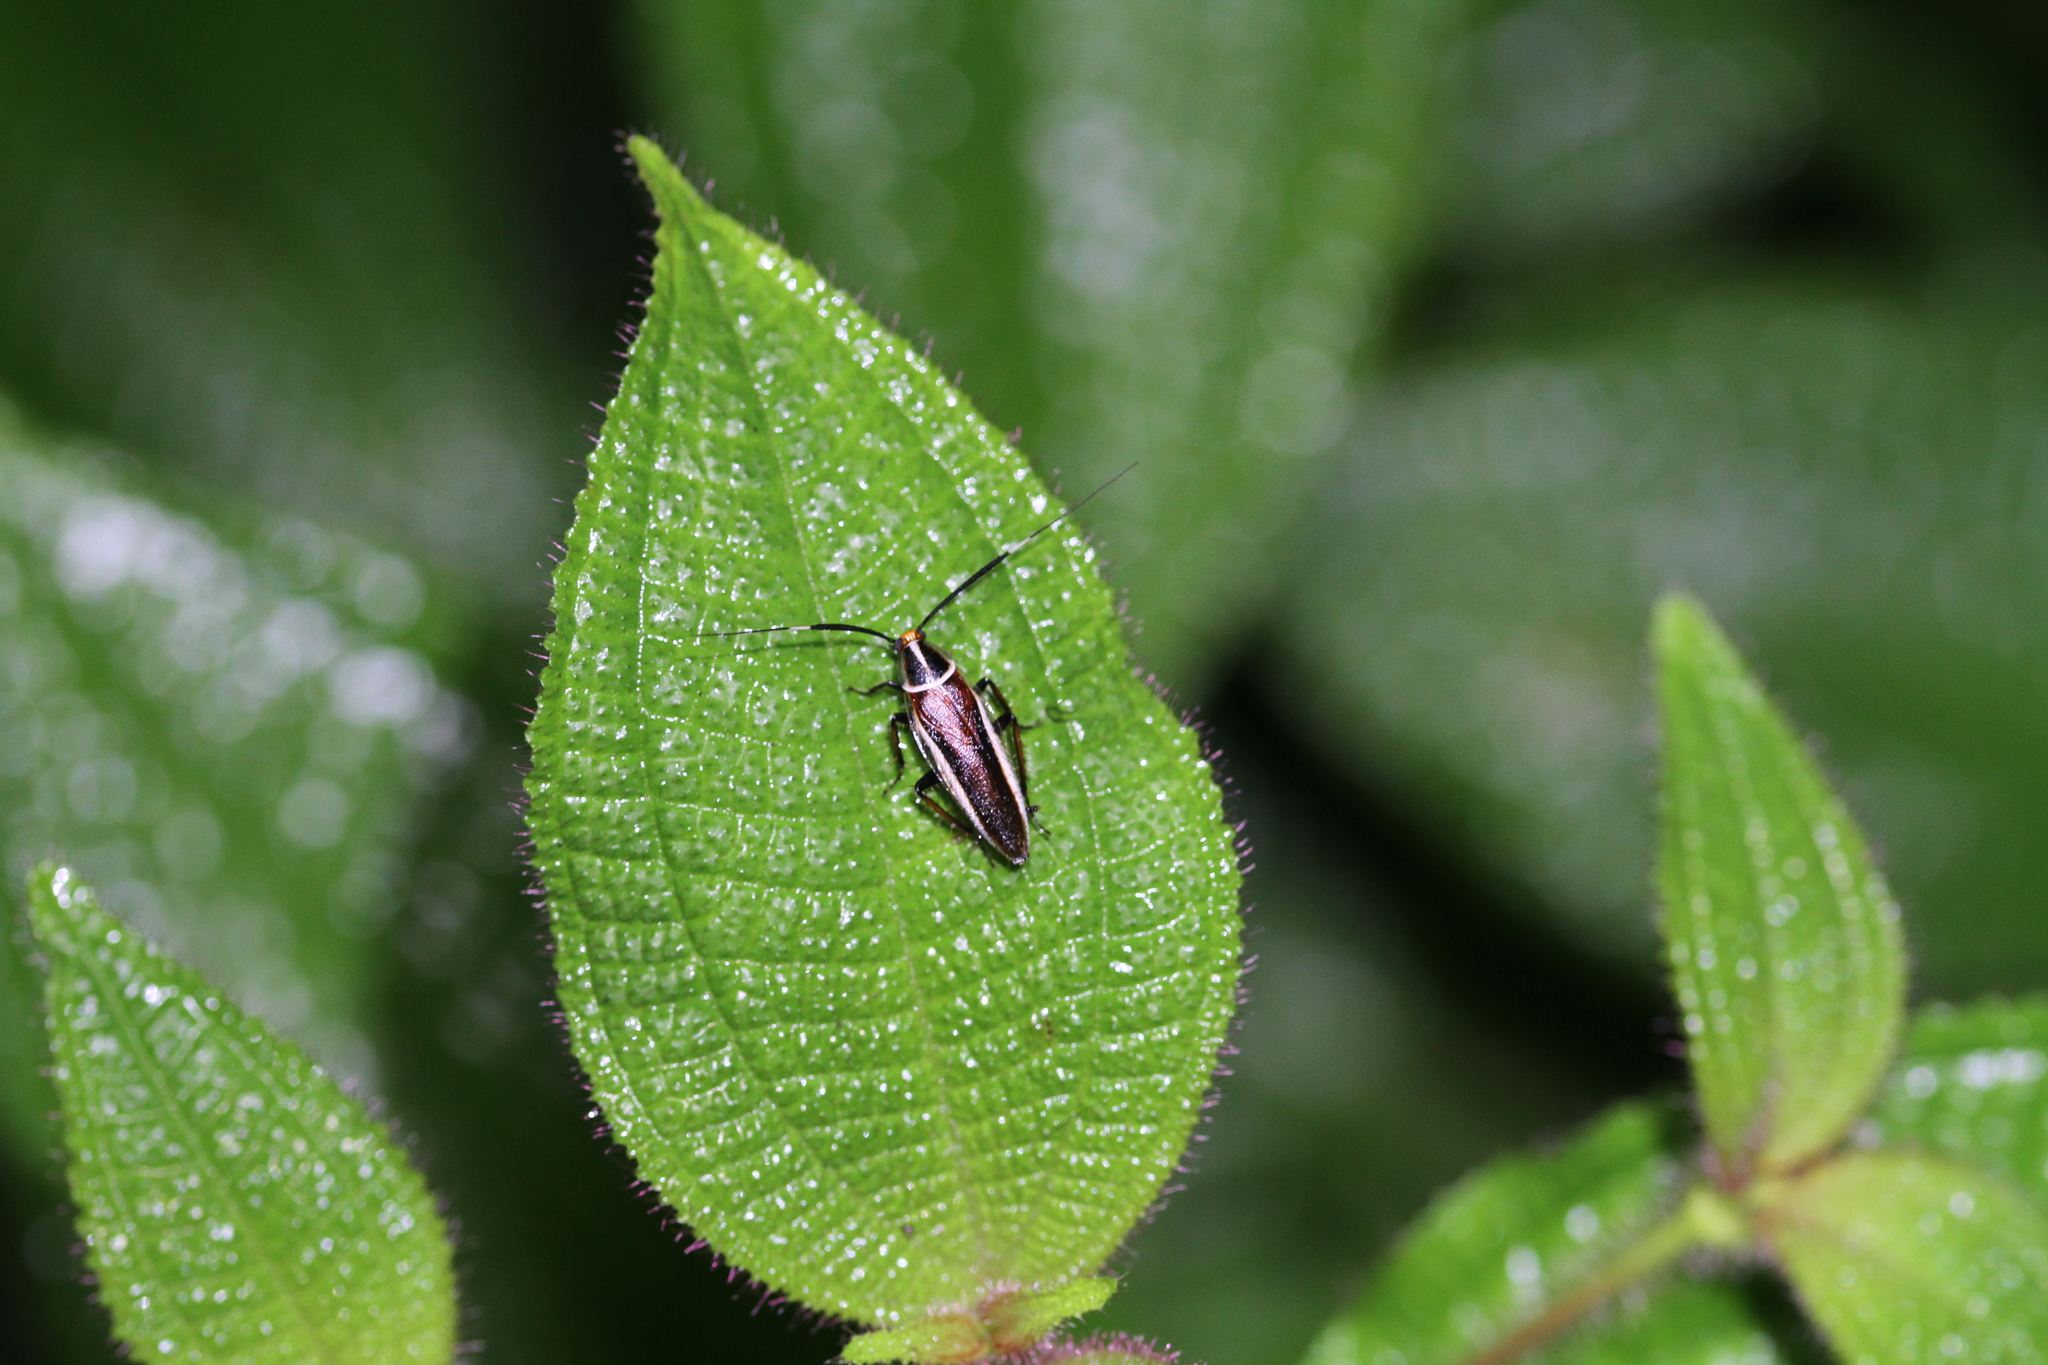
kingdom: Animalia
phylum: Arthropoda
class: Insecta
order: Blattodea
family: Ectobiidae
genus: Hemithyrsocera
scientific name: Hemithyrsocera histrio
